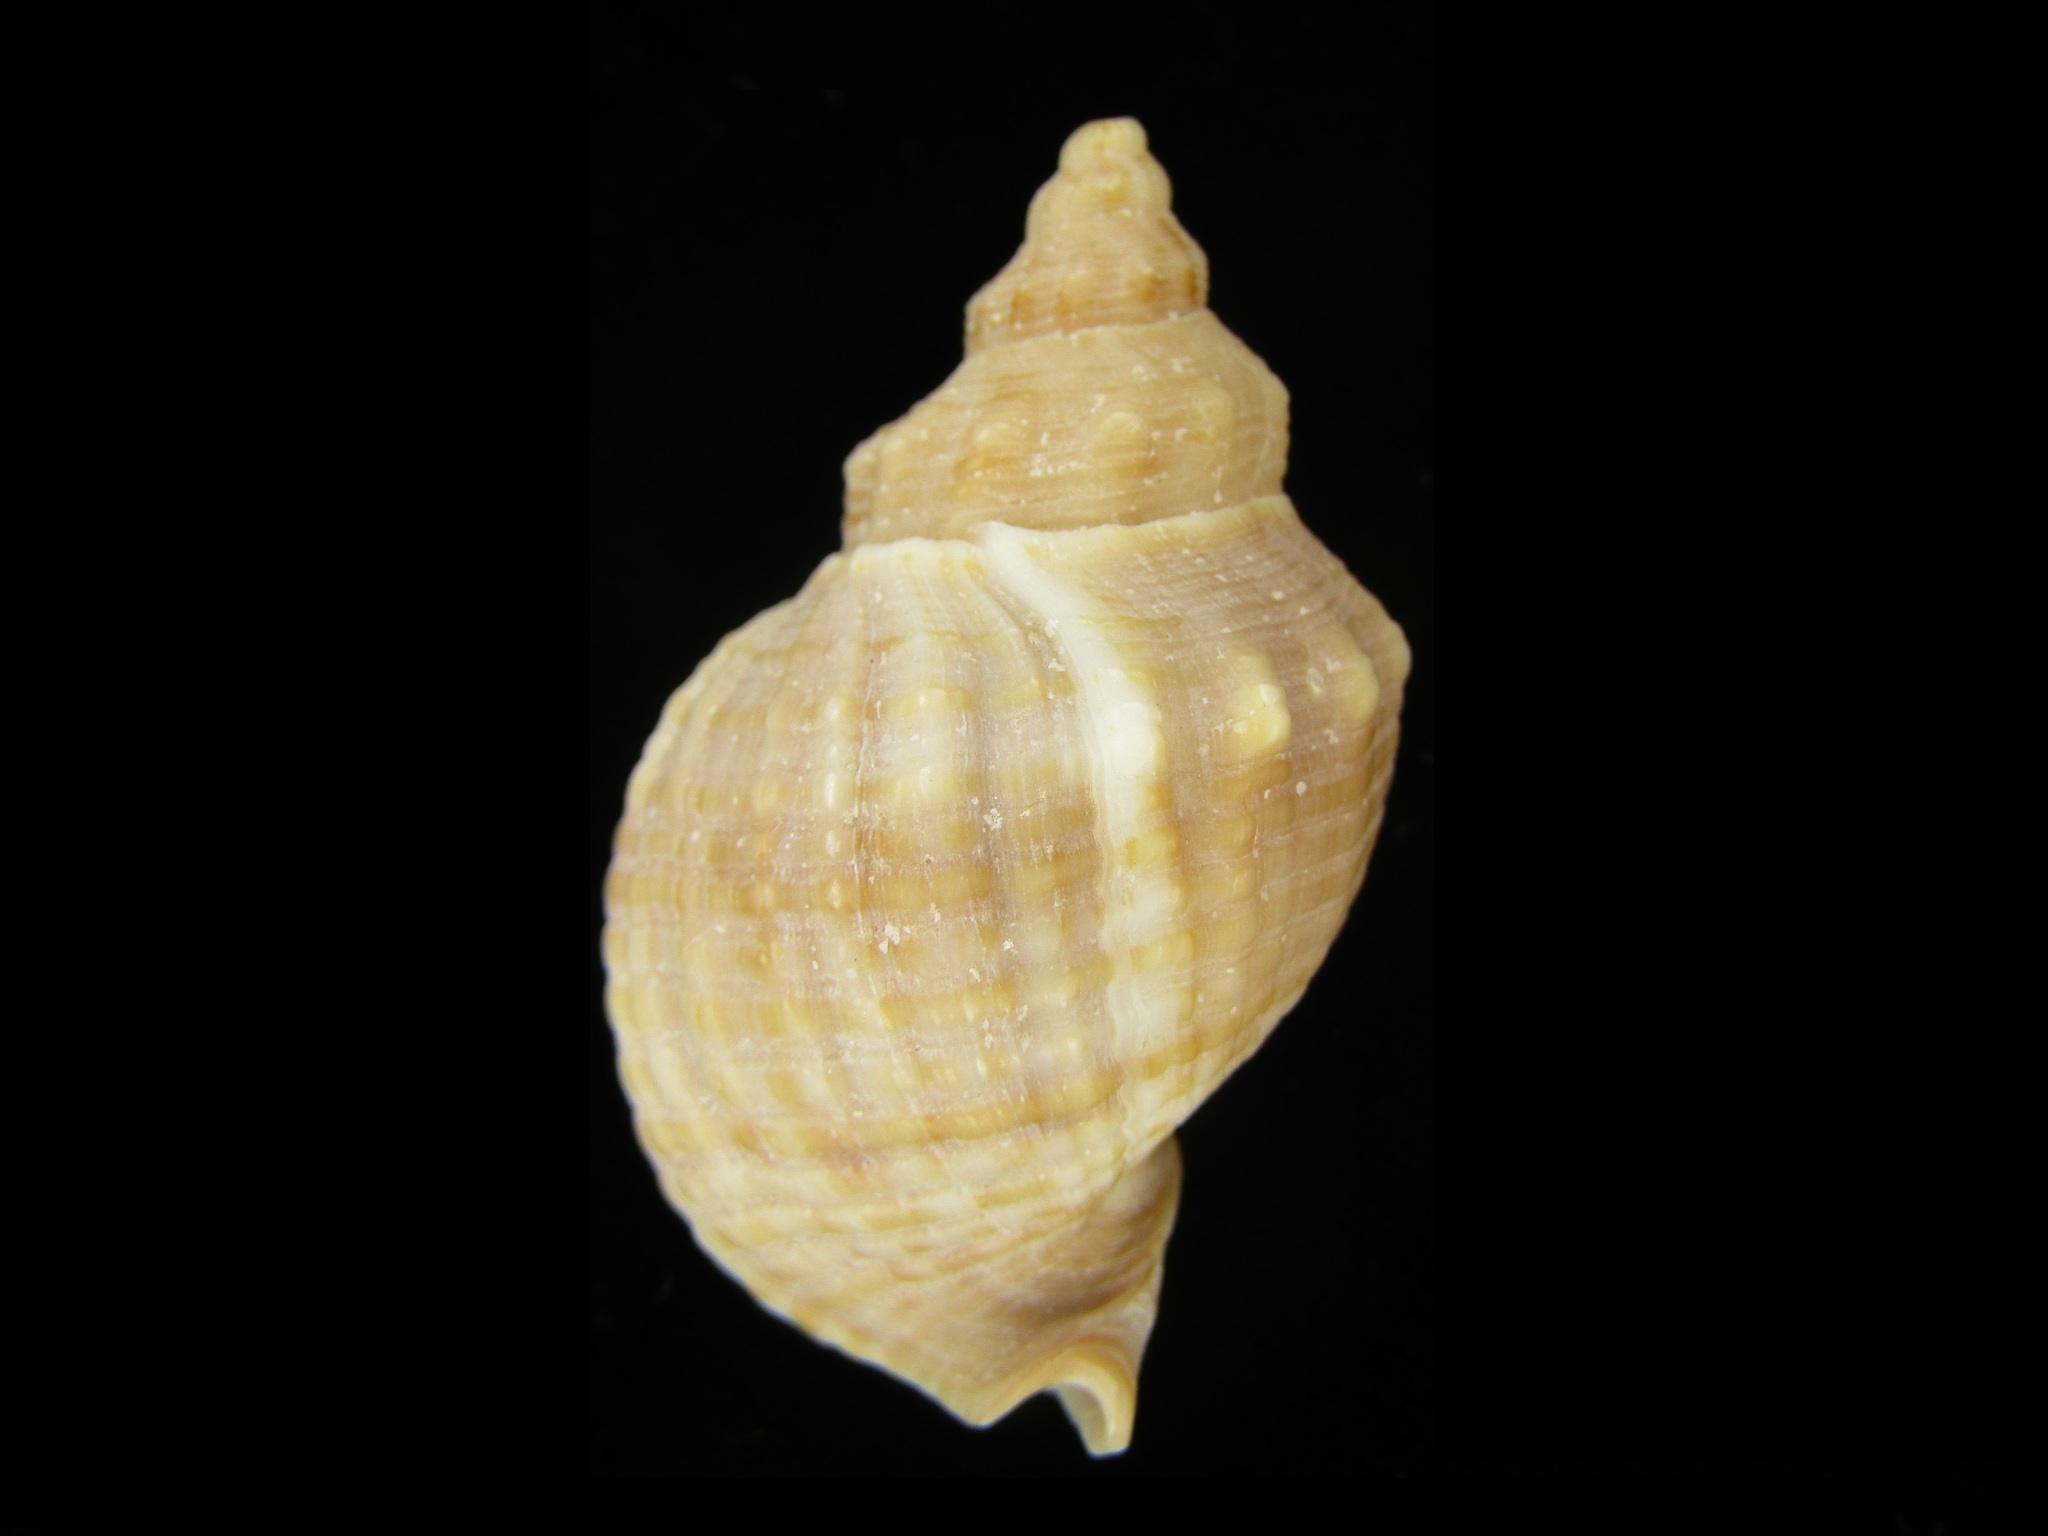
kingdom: Animalia
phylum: Mollusca
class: Gastropoda
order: Neogastropoda
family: Buccinidae
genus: Siphonalia
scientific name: Siphonalia cassidariaeformis
